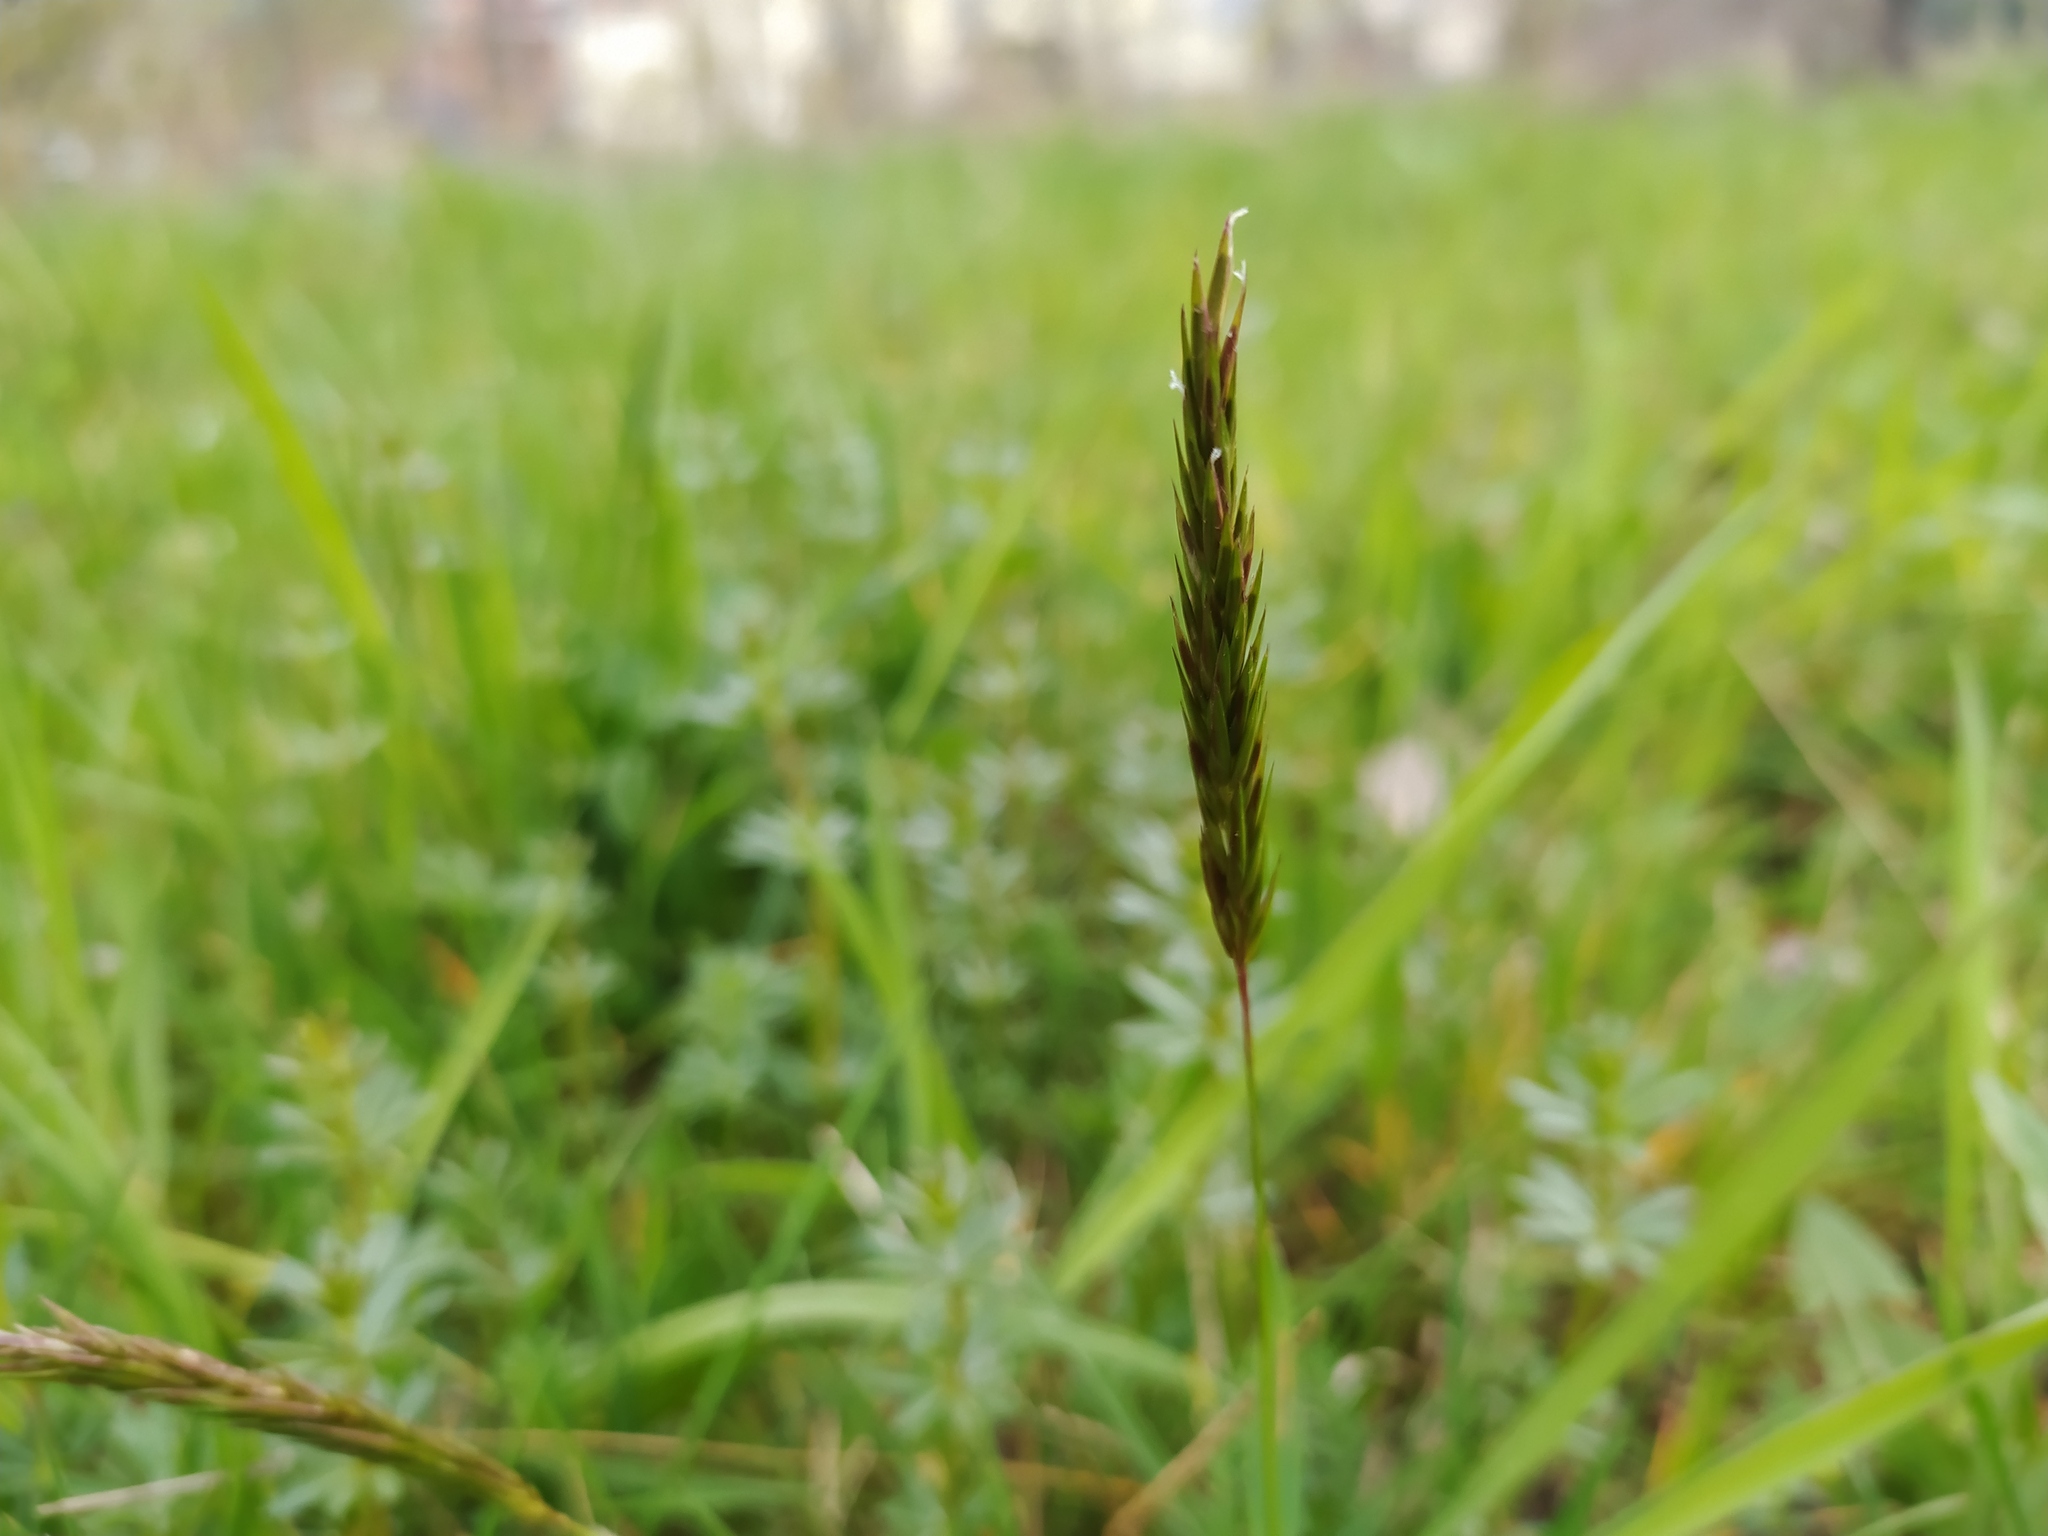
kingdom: Plantae
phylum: Tracheophyta
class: Liliopsida
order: Poales
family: Poaceae
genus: Anthoxanthum
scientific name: Anthoxanthum odoratum
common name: Sweet vernalgrass
